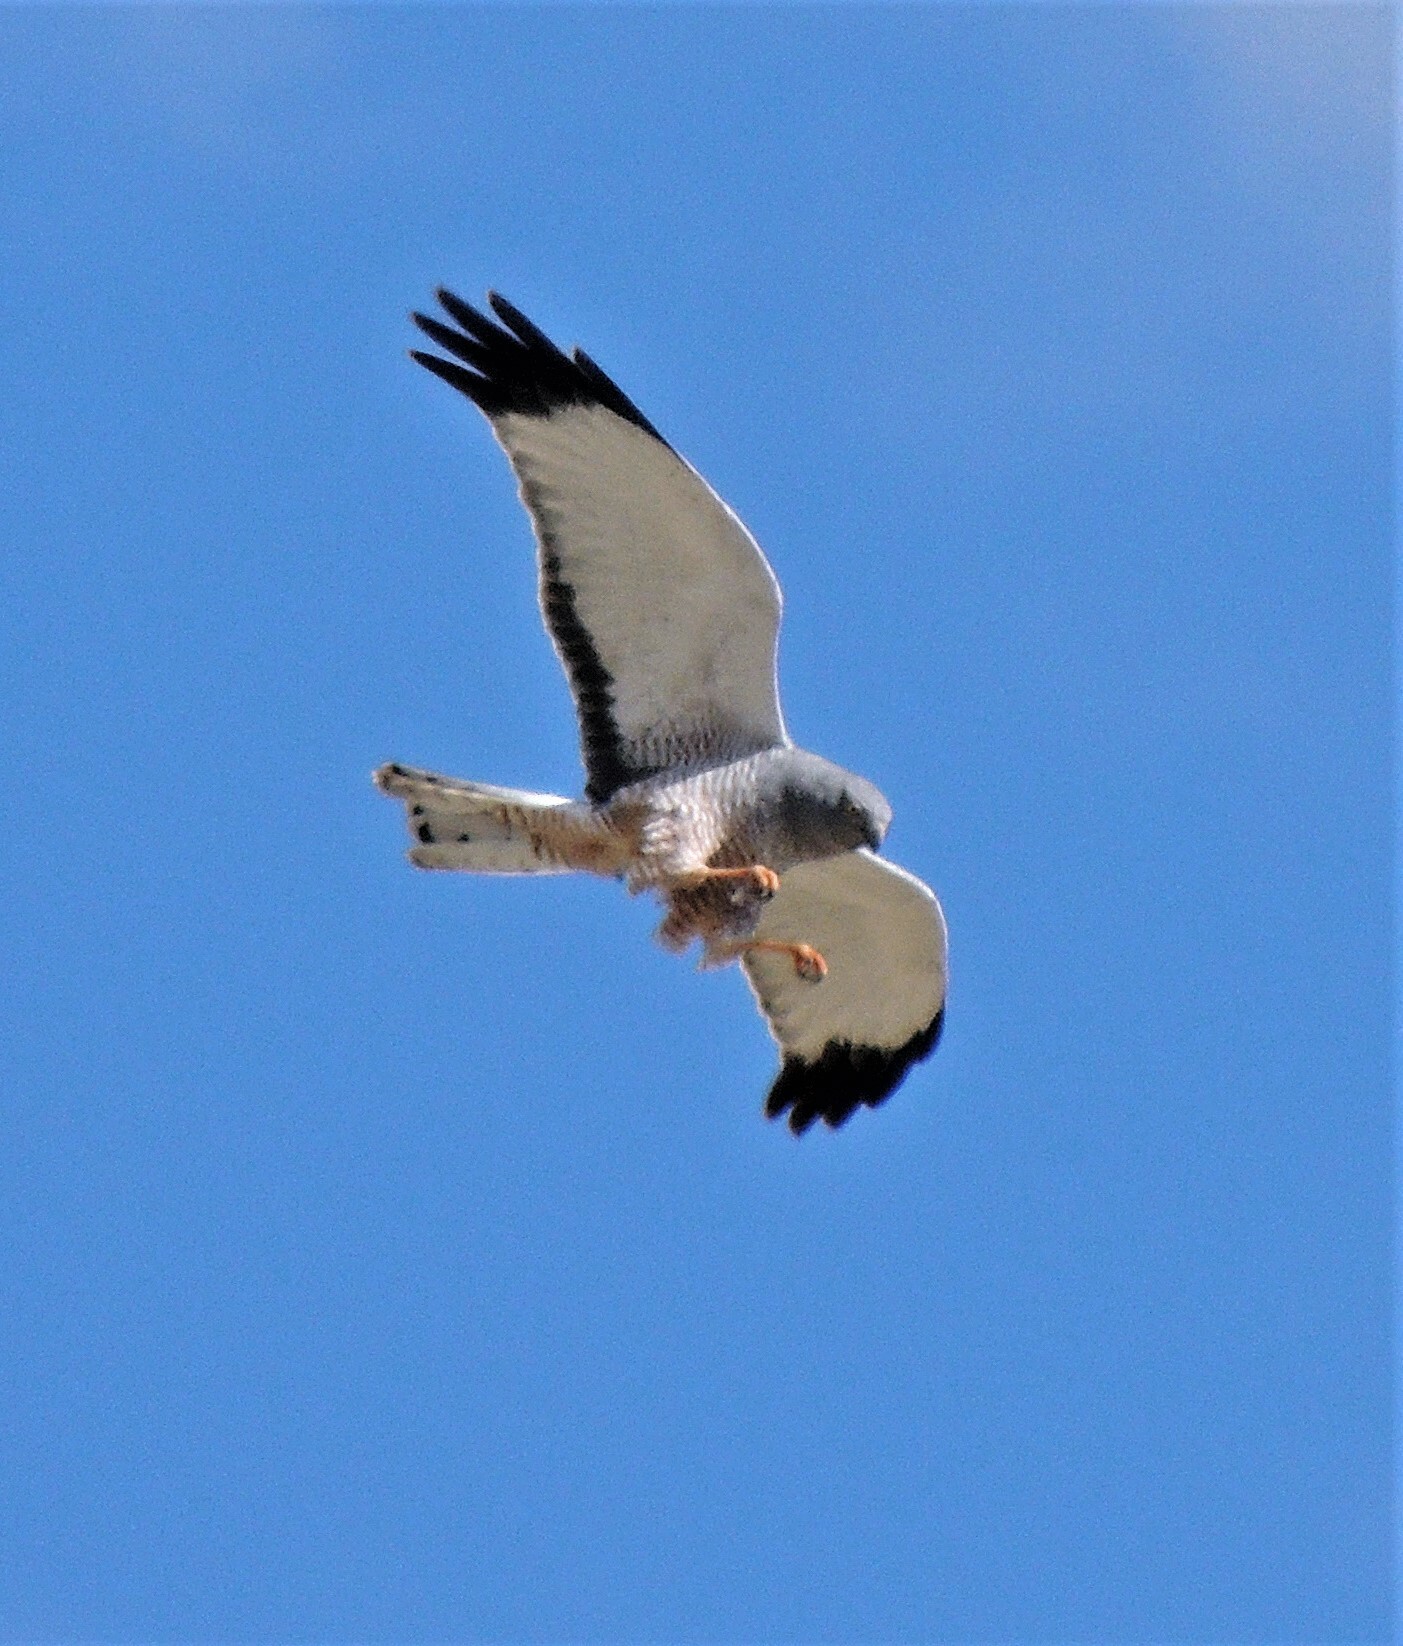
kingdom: Animalia
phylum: Chordata
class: Aves
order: Accipitriformes
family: Accipitridae
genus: Circus
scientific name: Circus cinereus
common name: Cinereous harrier
